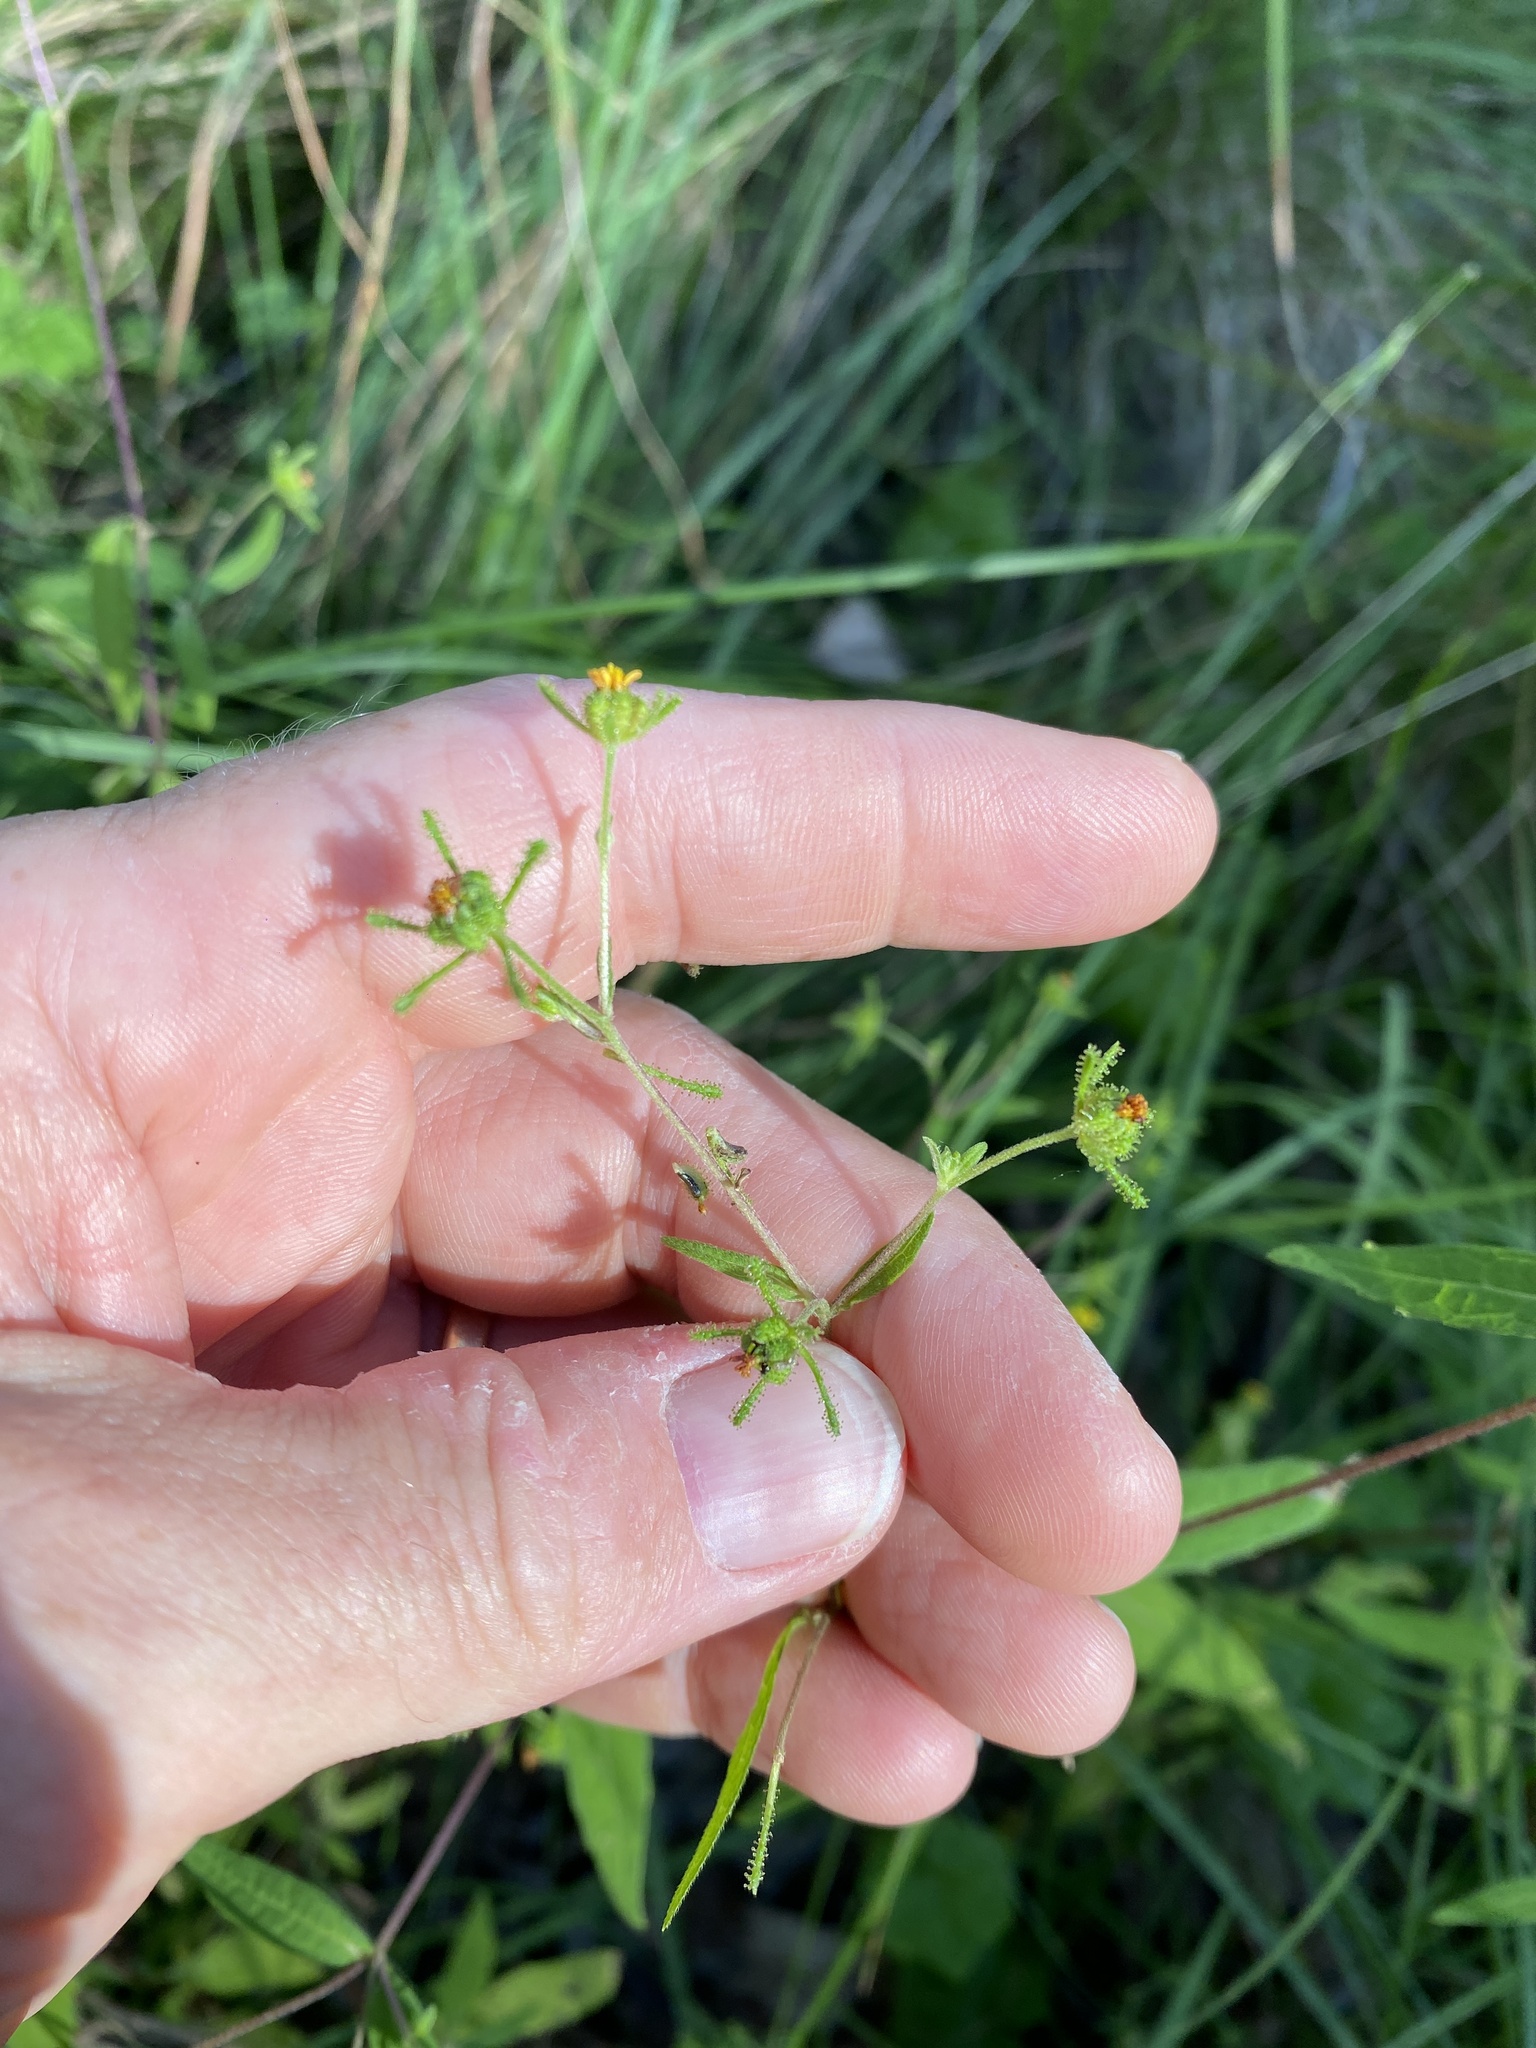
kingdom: Plantae
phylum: Tracheophyta
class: Magnoliopsida
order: Asterales
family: Asteraceae
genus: Sigesbeckia
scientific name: Sigesbeckia orientalis
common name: Eastern st paul's-wort
